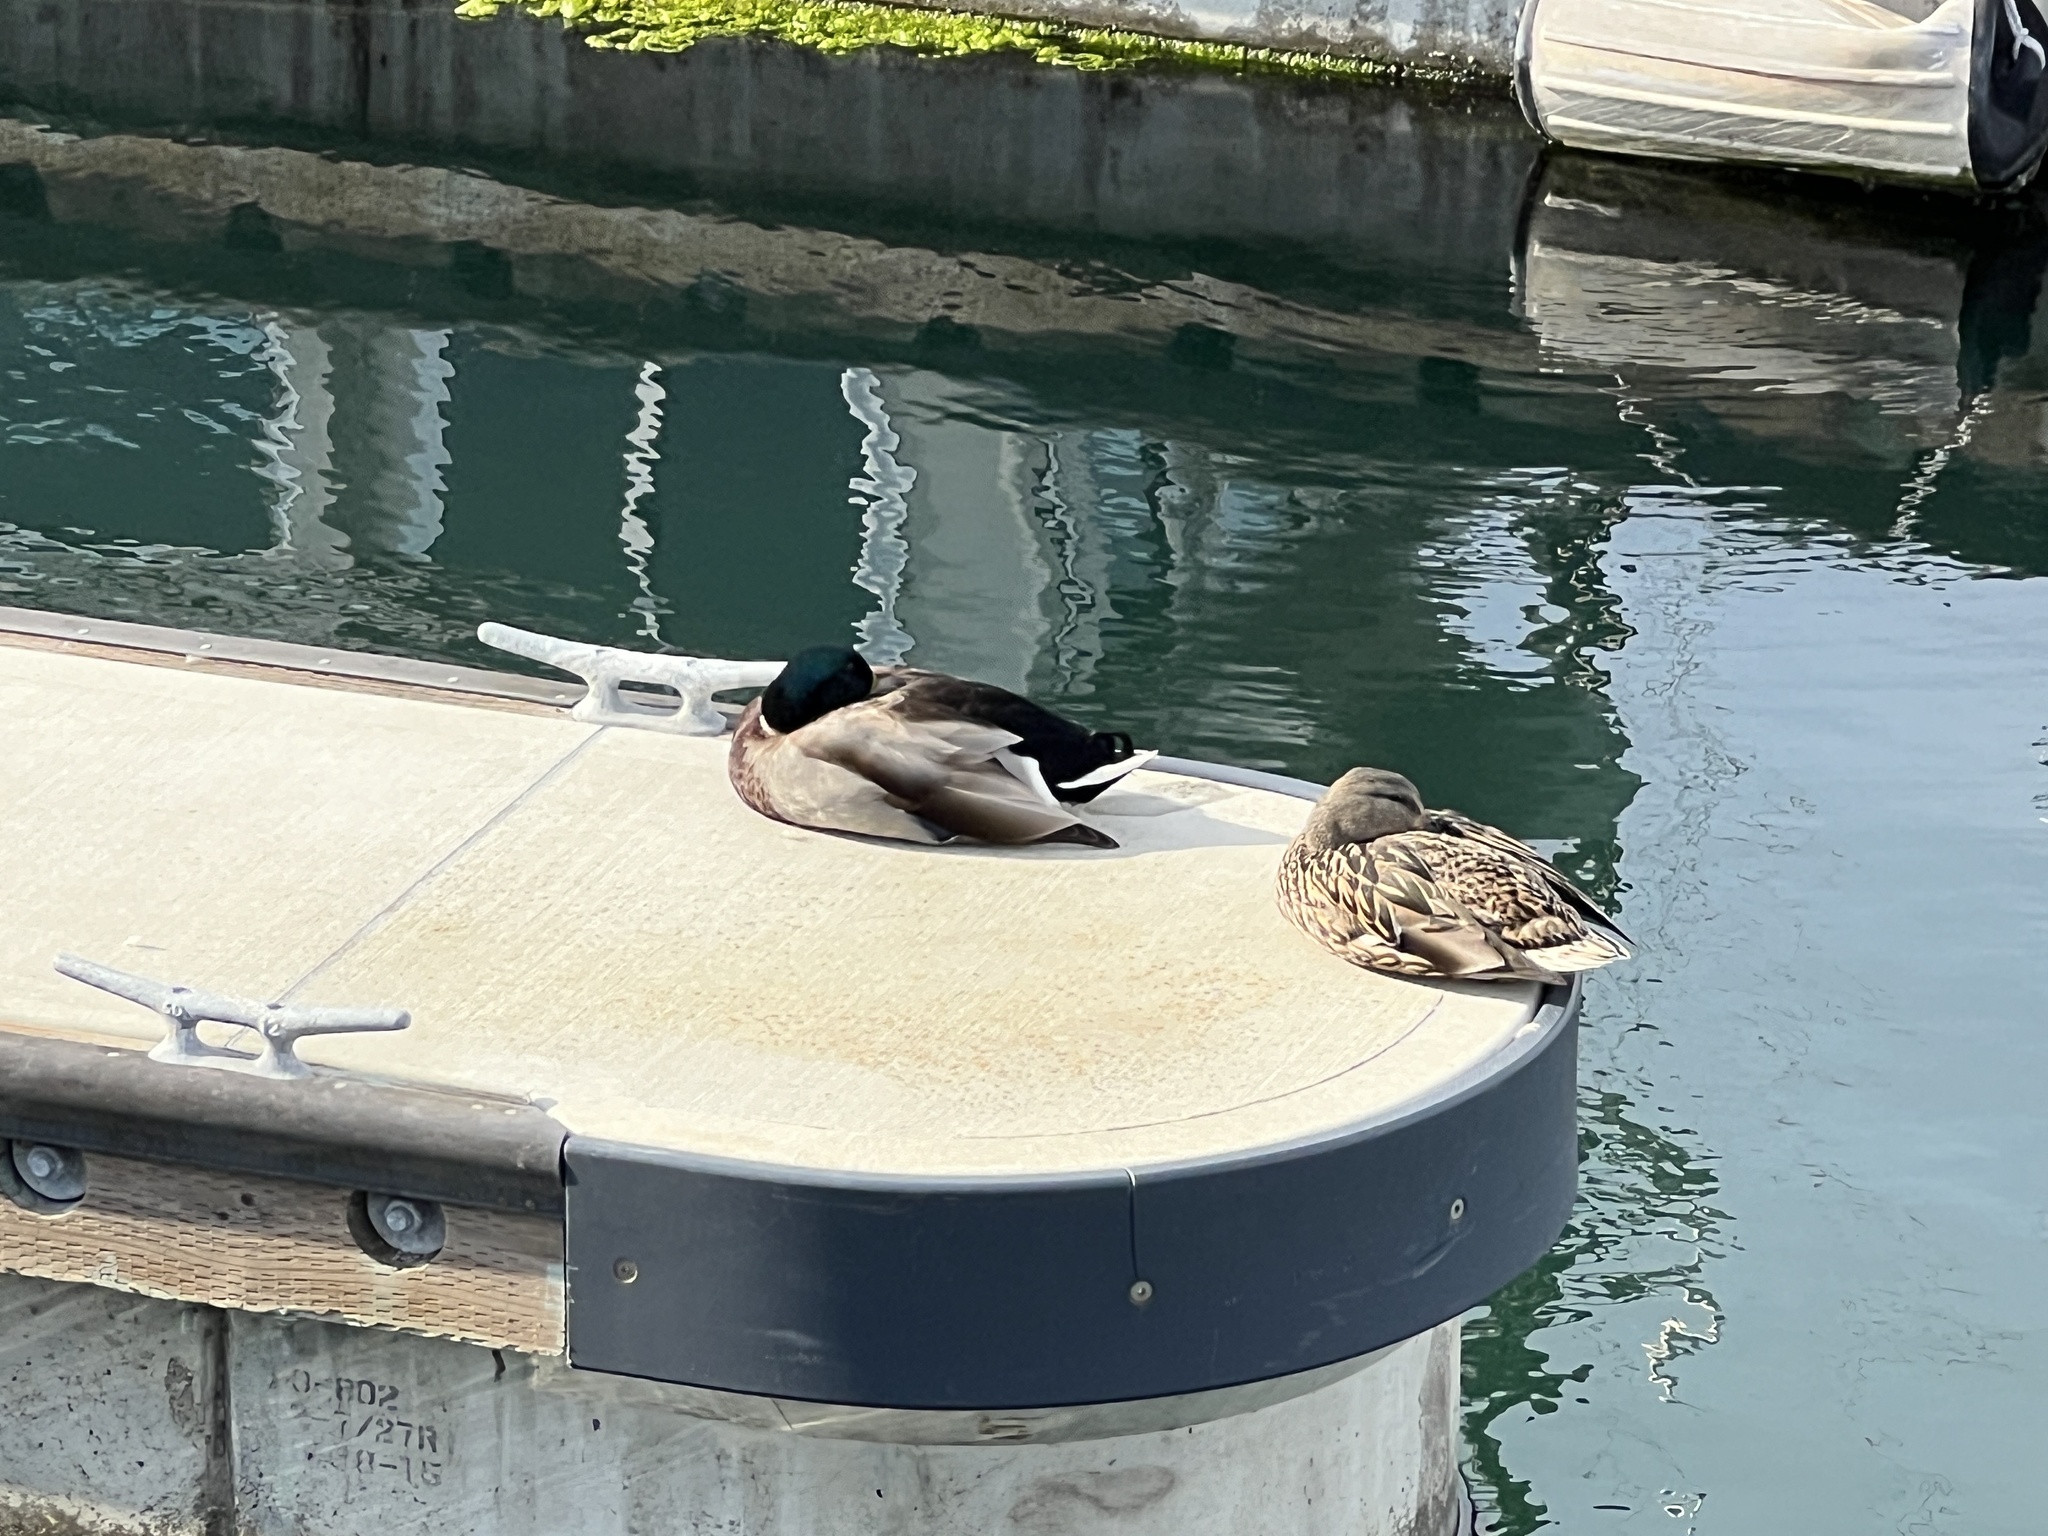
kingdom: Animalia
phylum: Chordata
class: Aves
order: Anseriformes
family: Anatidae
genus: Anas
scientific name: Anas platyrhynchos
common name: Mallard
